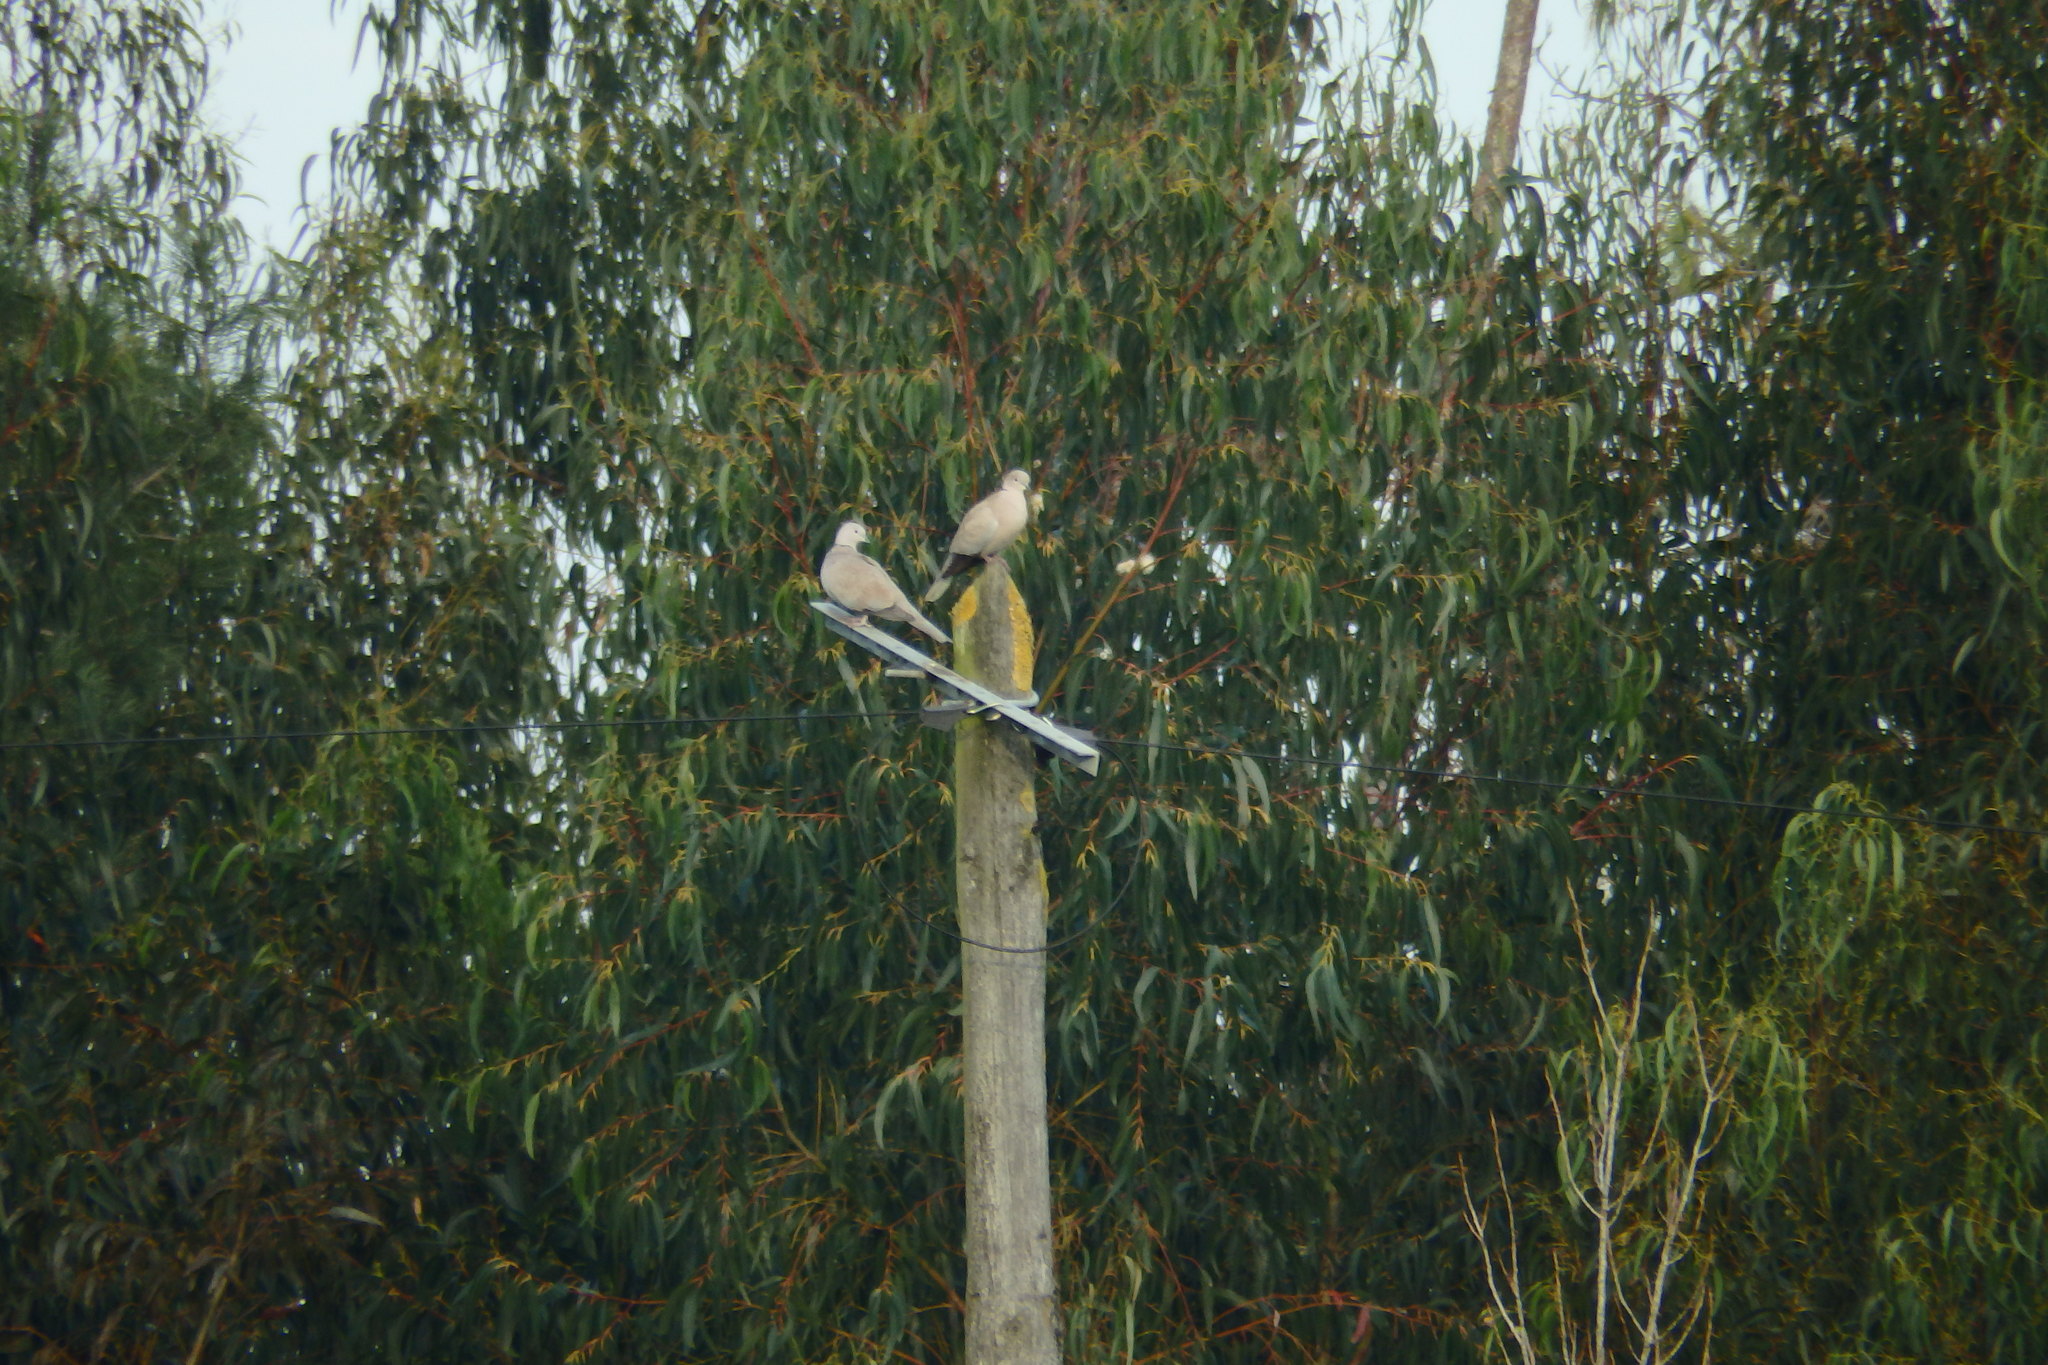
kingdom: Animalia
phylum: Chordata
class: Aves
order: Columbiformes
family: Columbidae
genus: Streptopelia
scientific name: Streptopelia decaocto
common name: Eurasian collared dove
